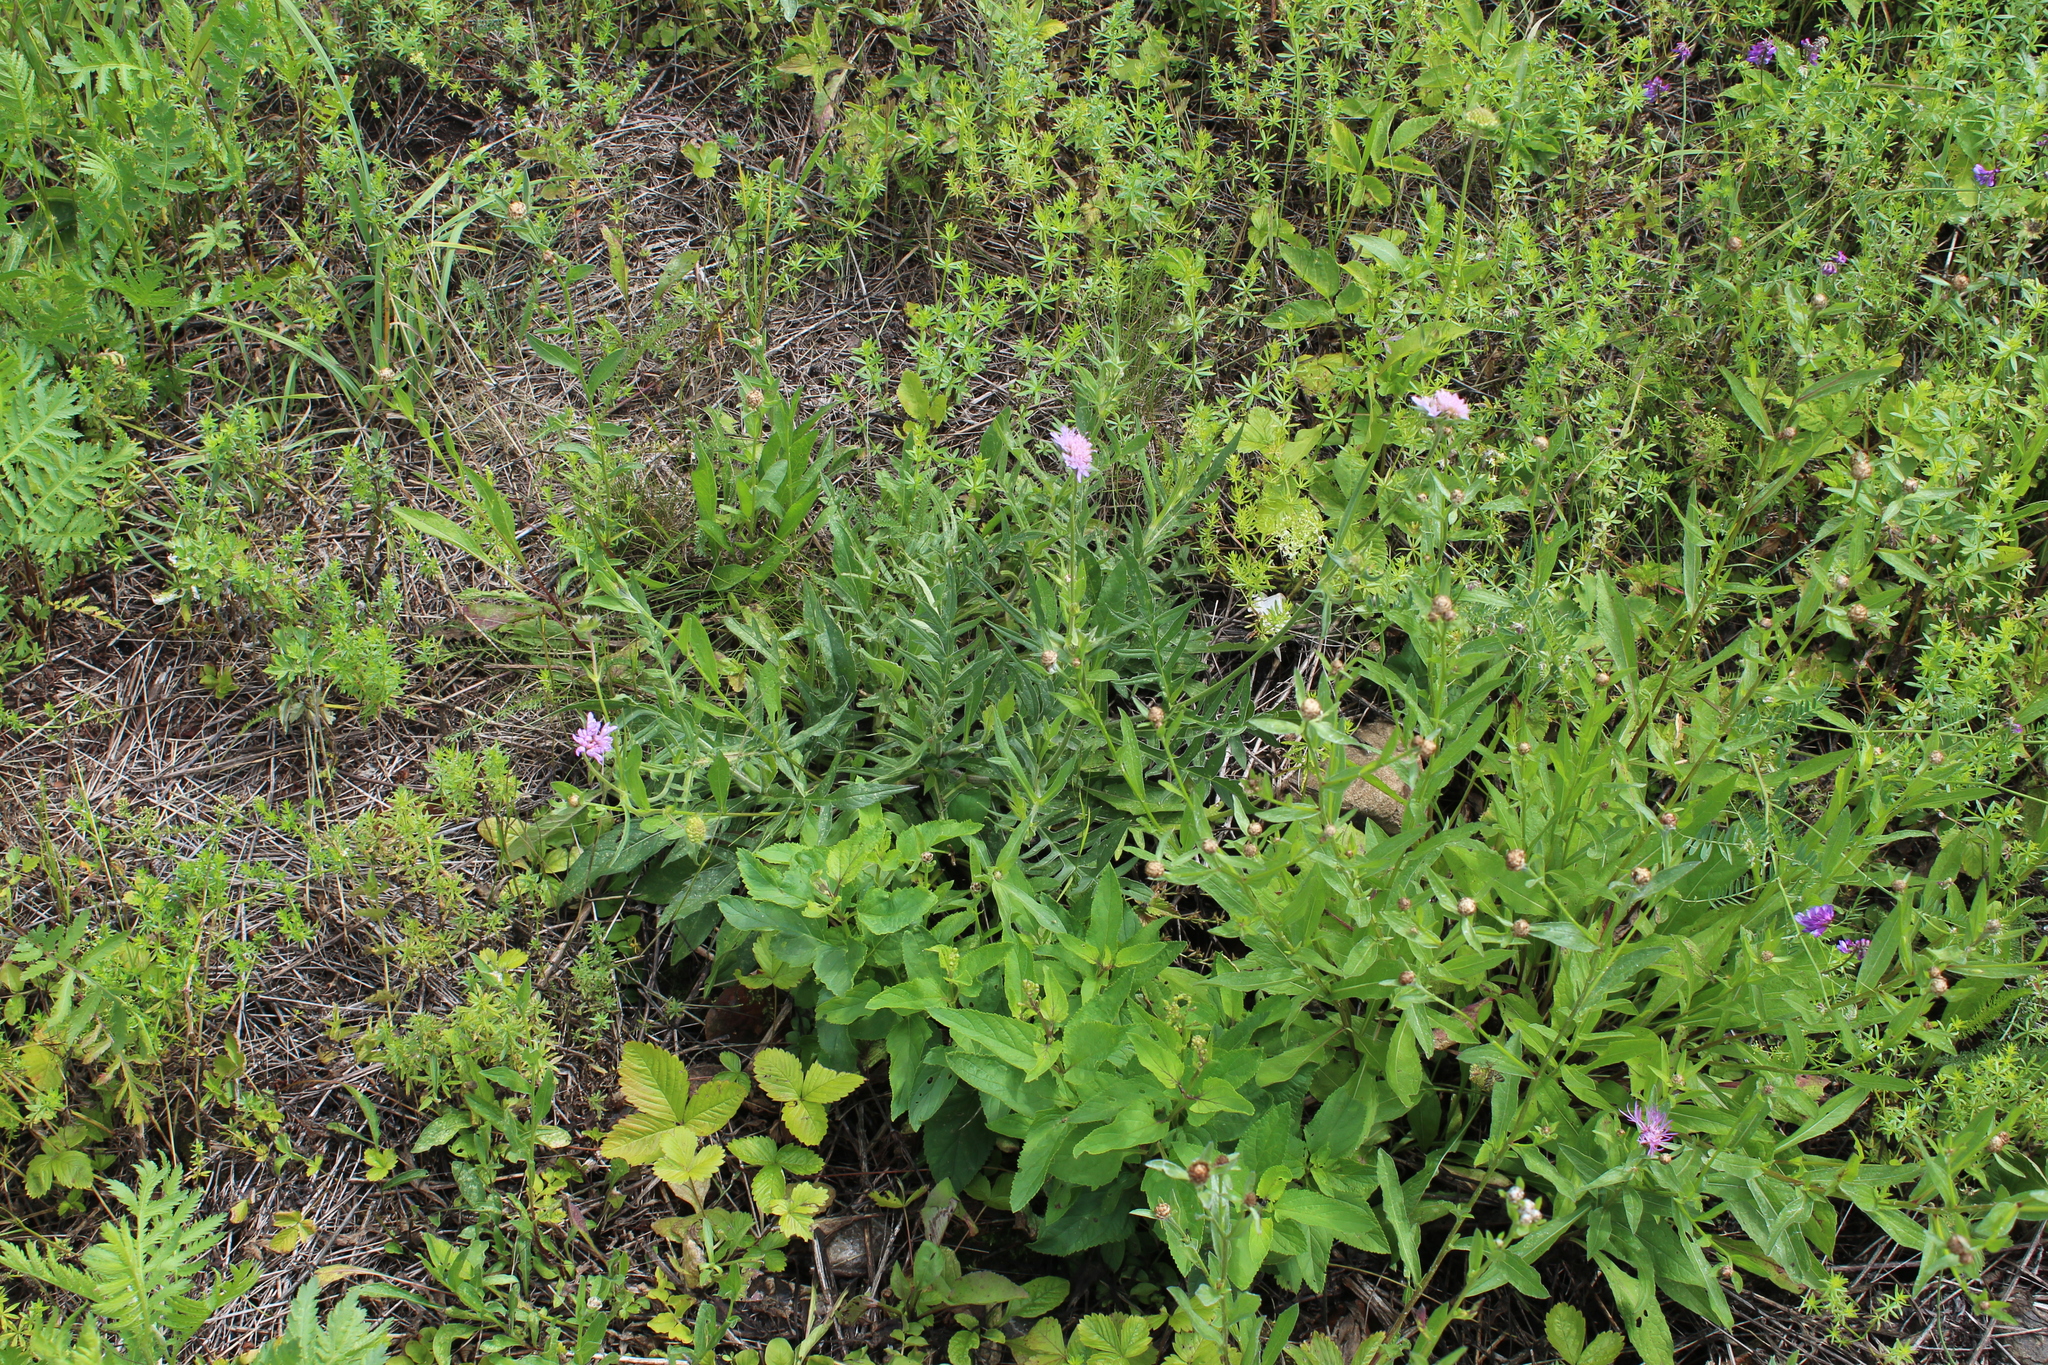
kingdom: Plantae
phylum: Tracheophyta
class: Magnoliopsida
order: Dipsacales
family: Caprifoliaceae
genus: Knautia
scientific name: Knautia arvensis
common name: Field scabiosa
